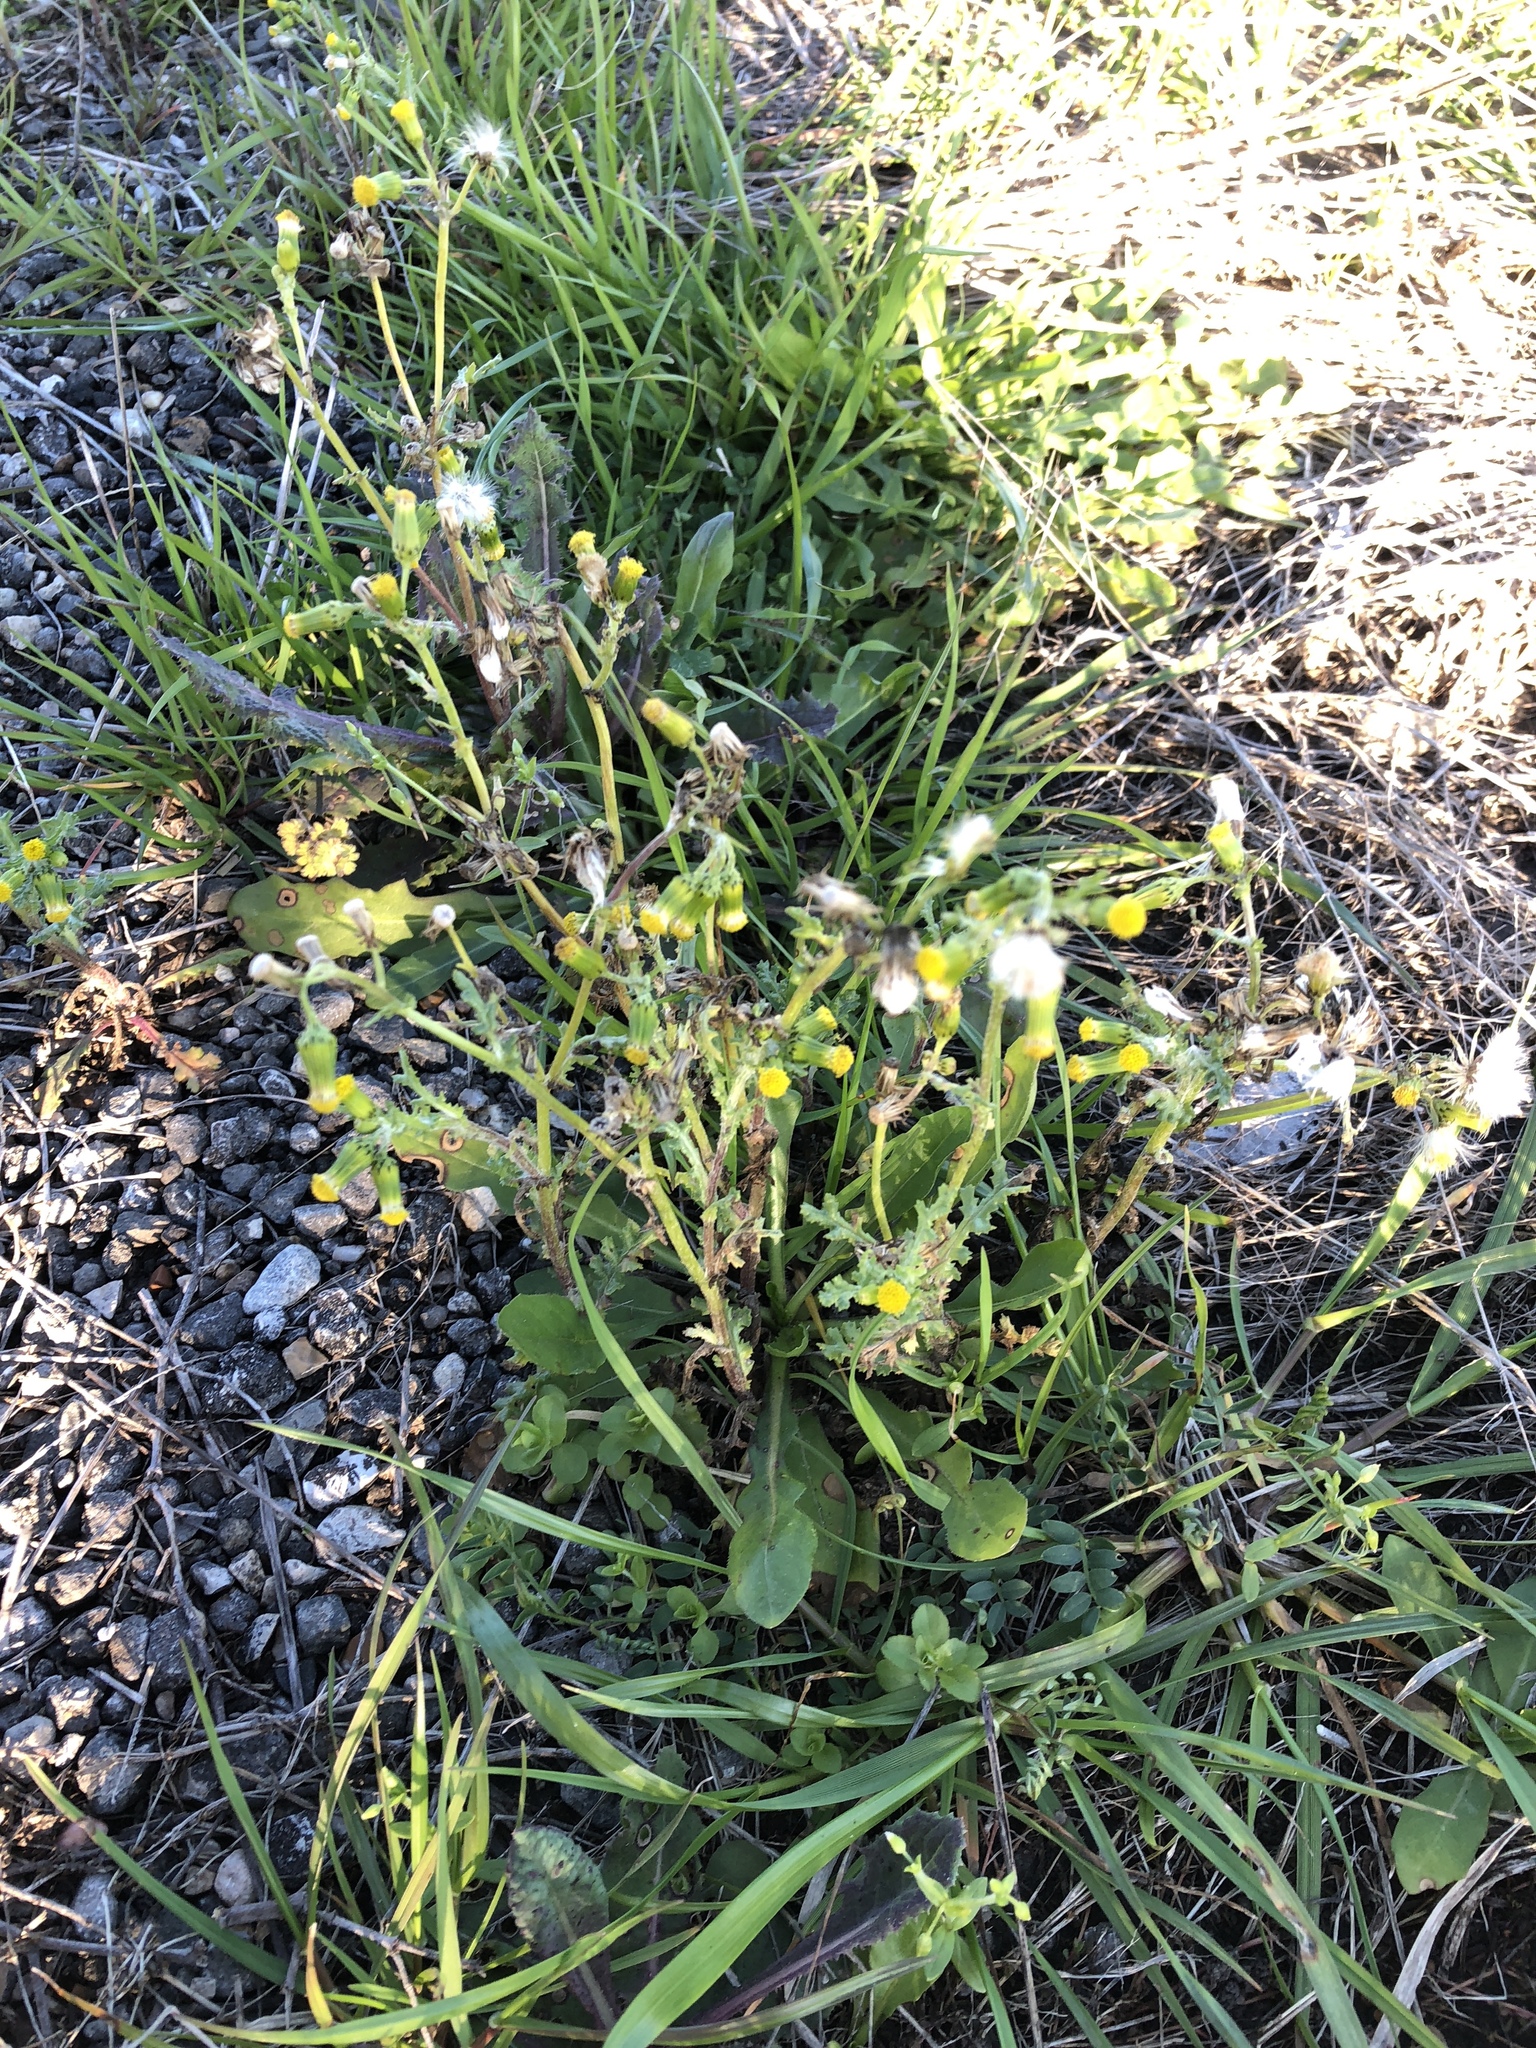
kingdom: Plantae
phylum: Tracheophyta
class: Magnoliopsida
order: Asterales
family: Asteraceae
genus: Senecio
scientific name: Senecio vulgaris
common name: Old-man-in-the-spring
